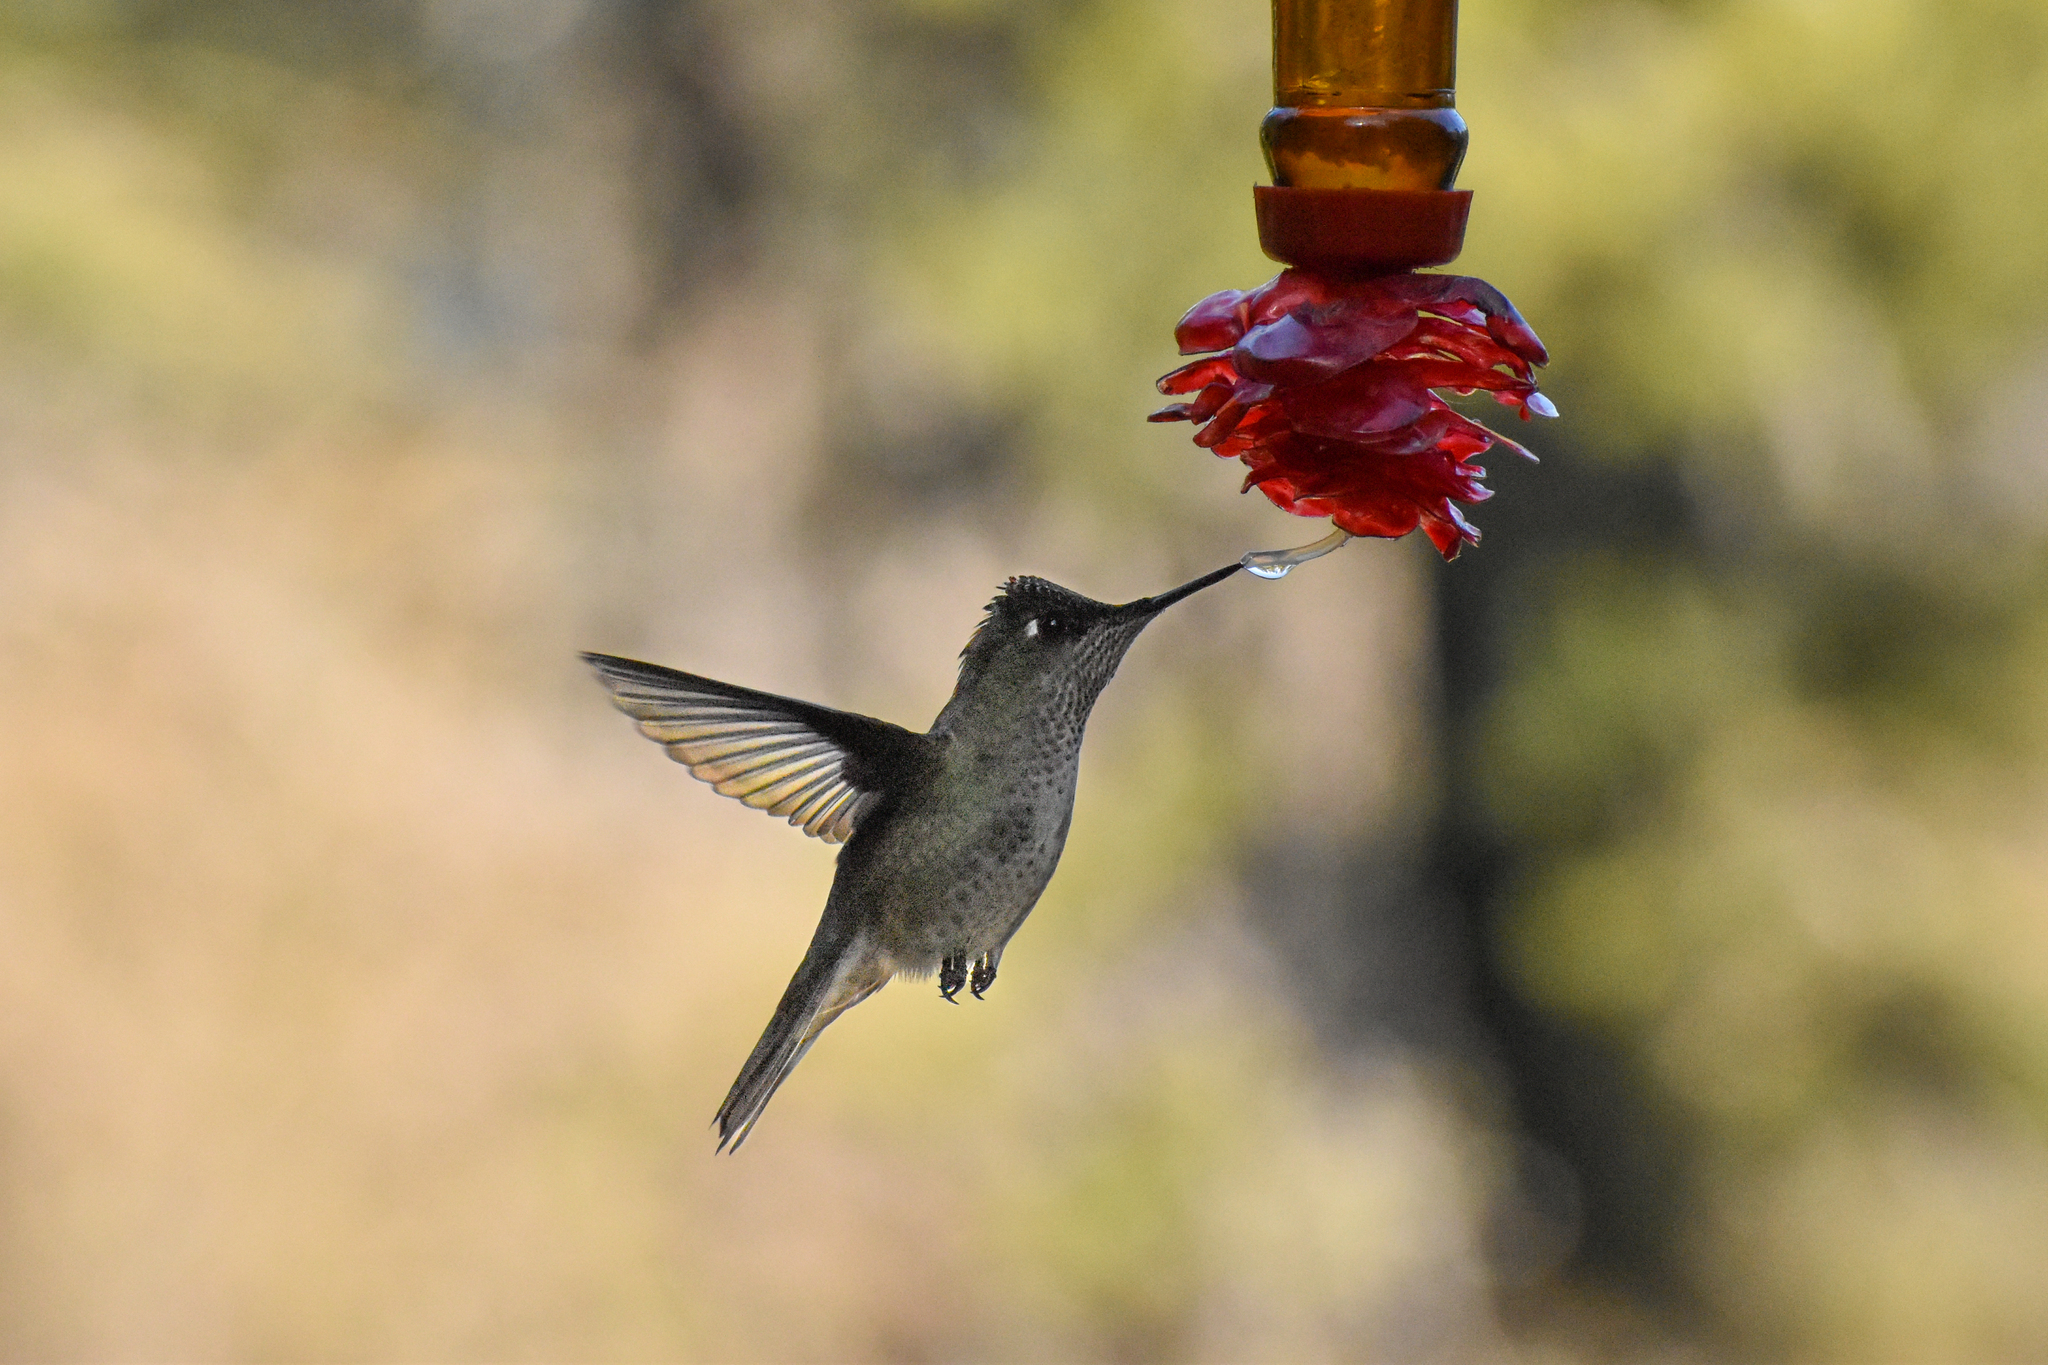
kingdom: Animalia
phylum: Chordata
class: Aves
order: Apodiformes
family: Trochilidae
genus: Sephanoides
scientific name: Sephanoides sephaniodes
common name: Green-backed firecrown
